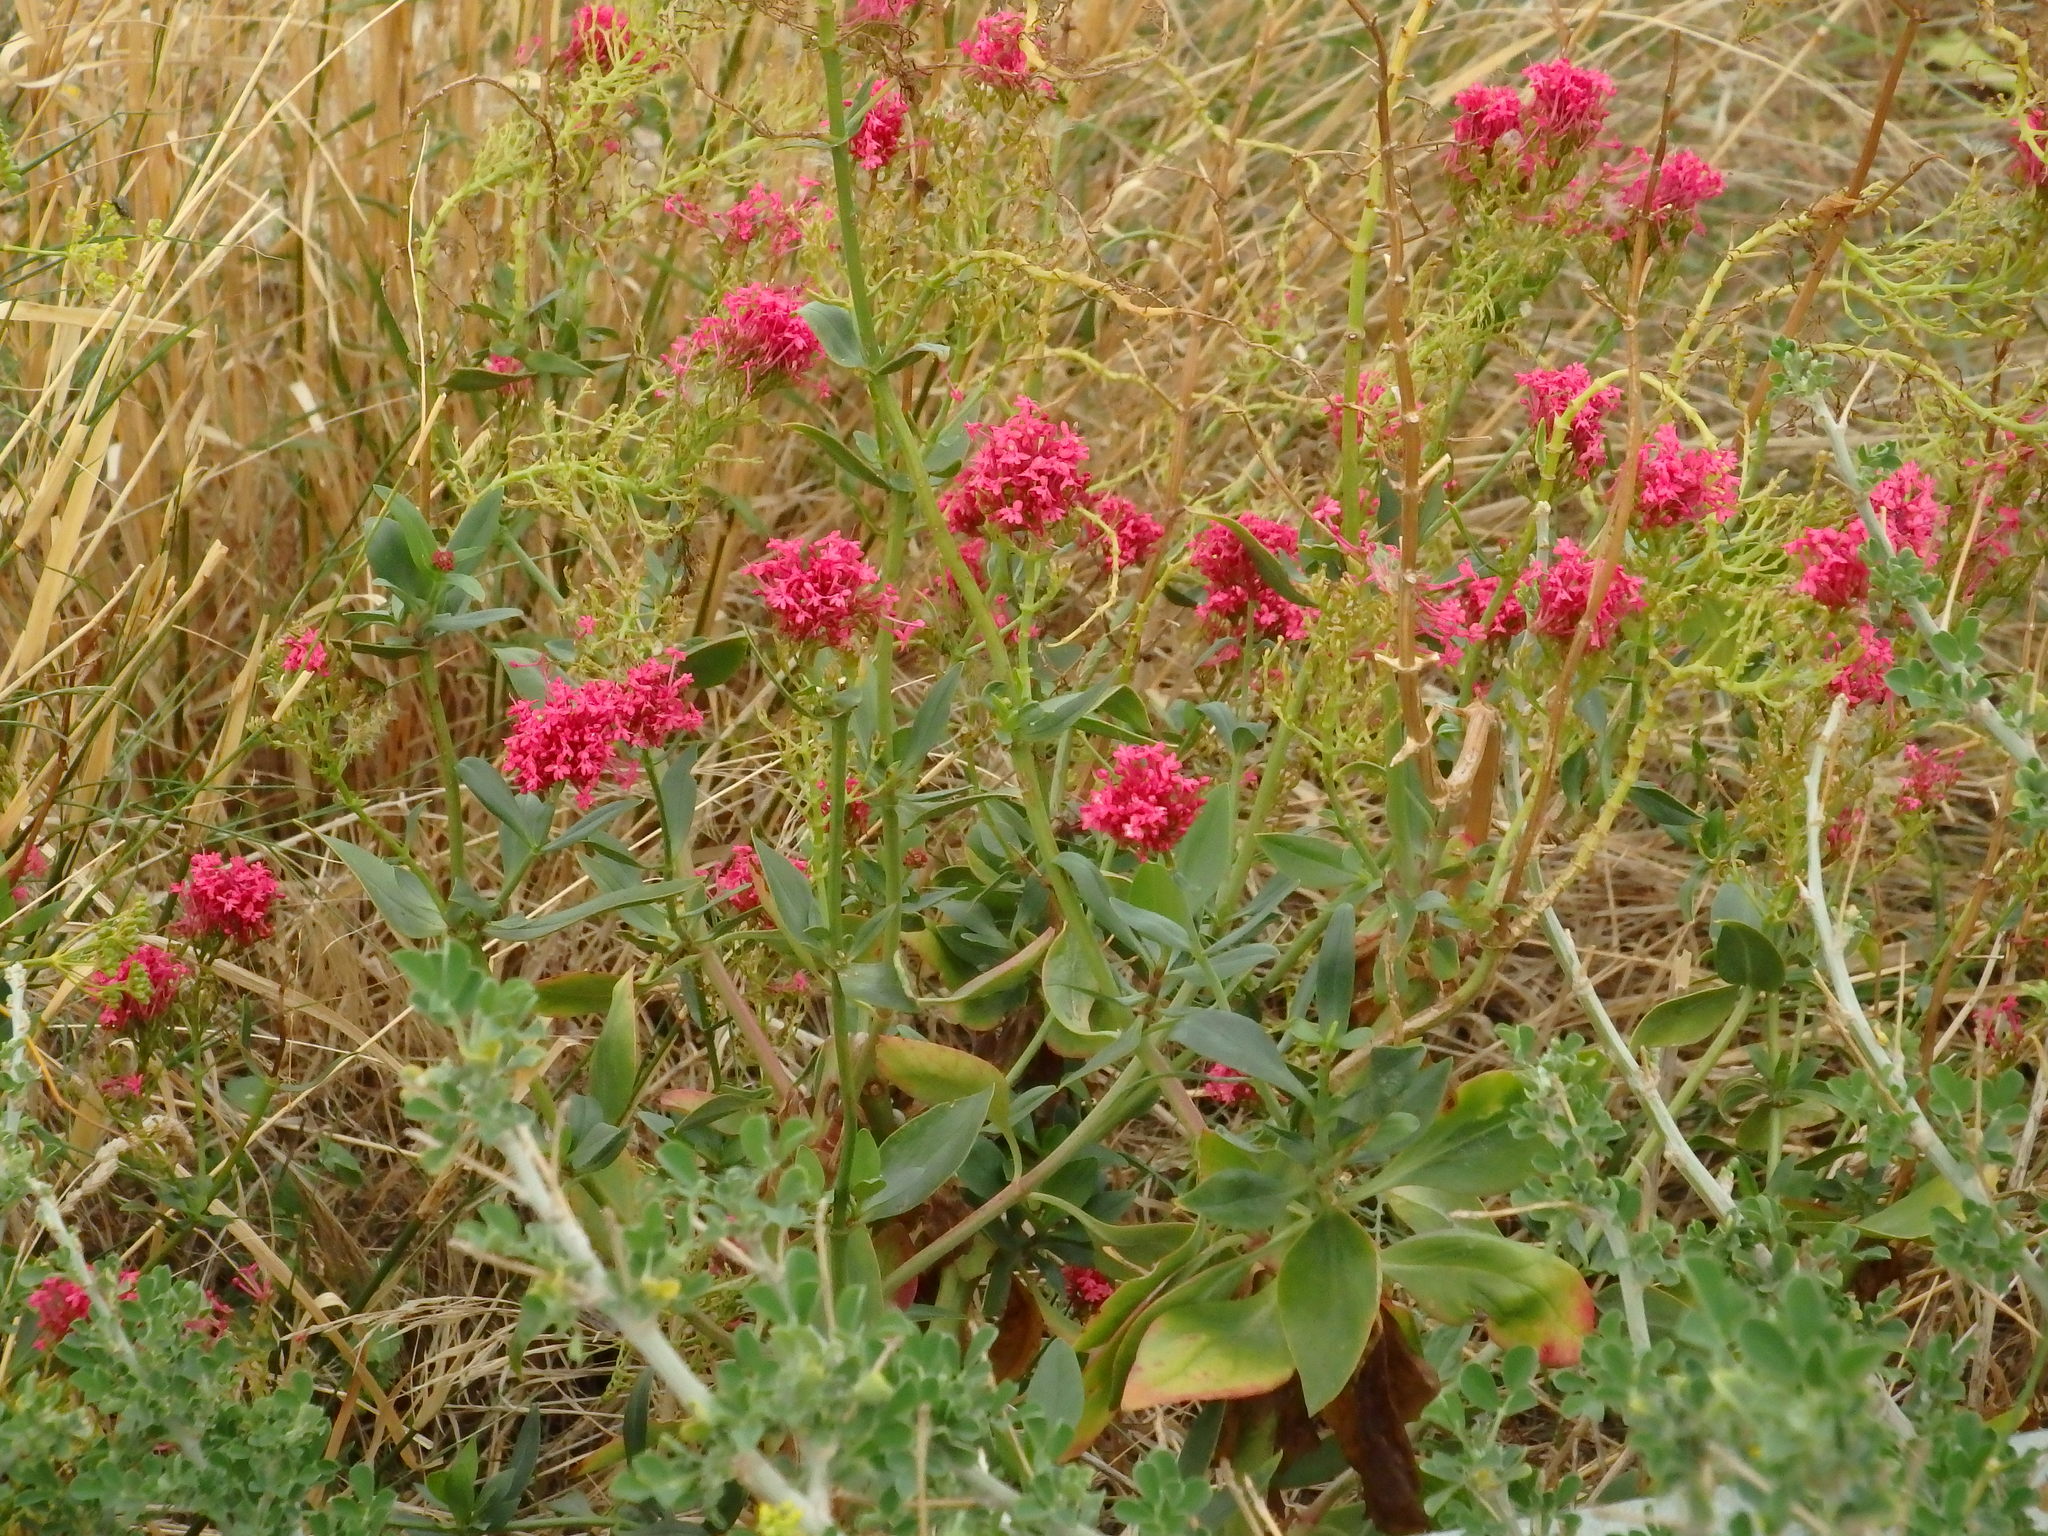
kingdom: Plantae
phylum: Tracheophyta
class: Magnoliopsida
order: Dipsacales
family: Caprifoliaceae
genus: Centranthus
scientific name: Centranthus ruber
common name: Red valerian
